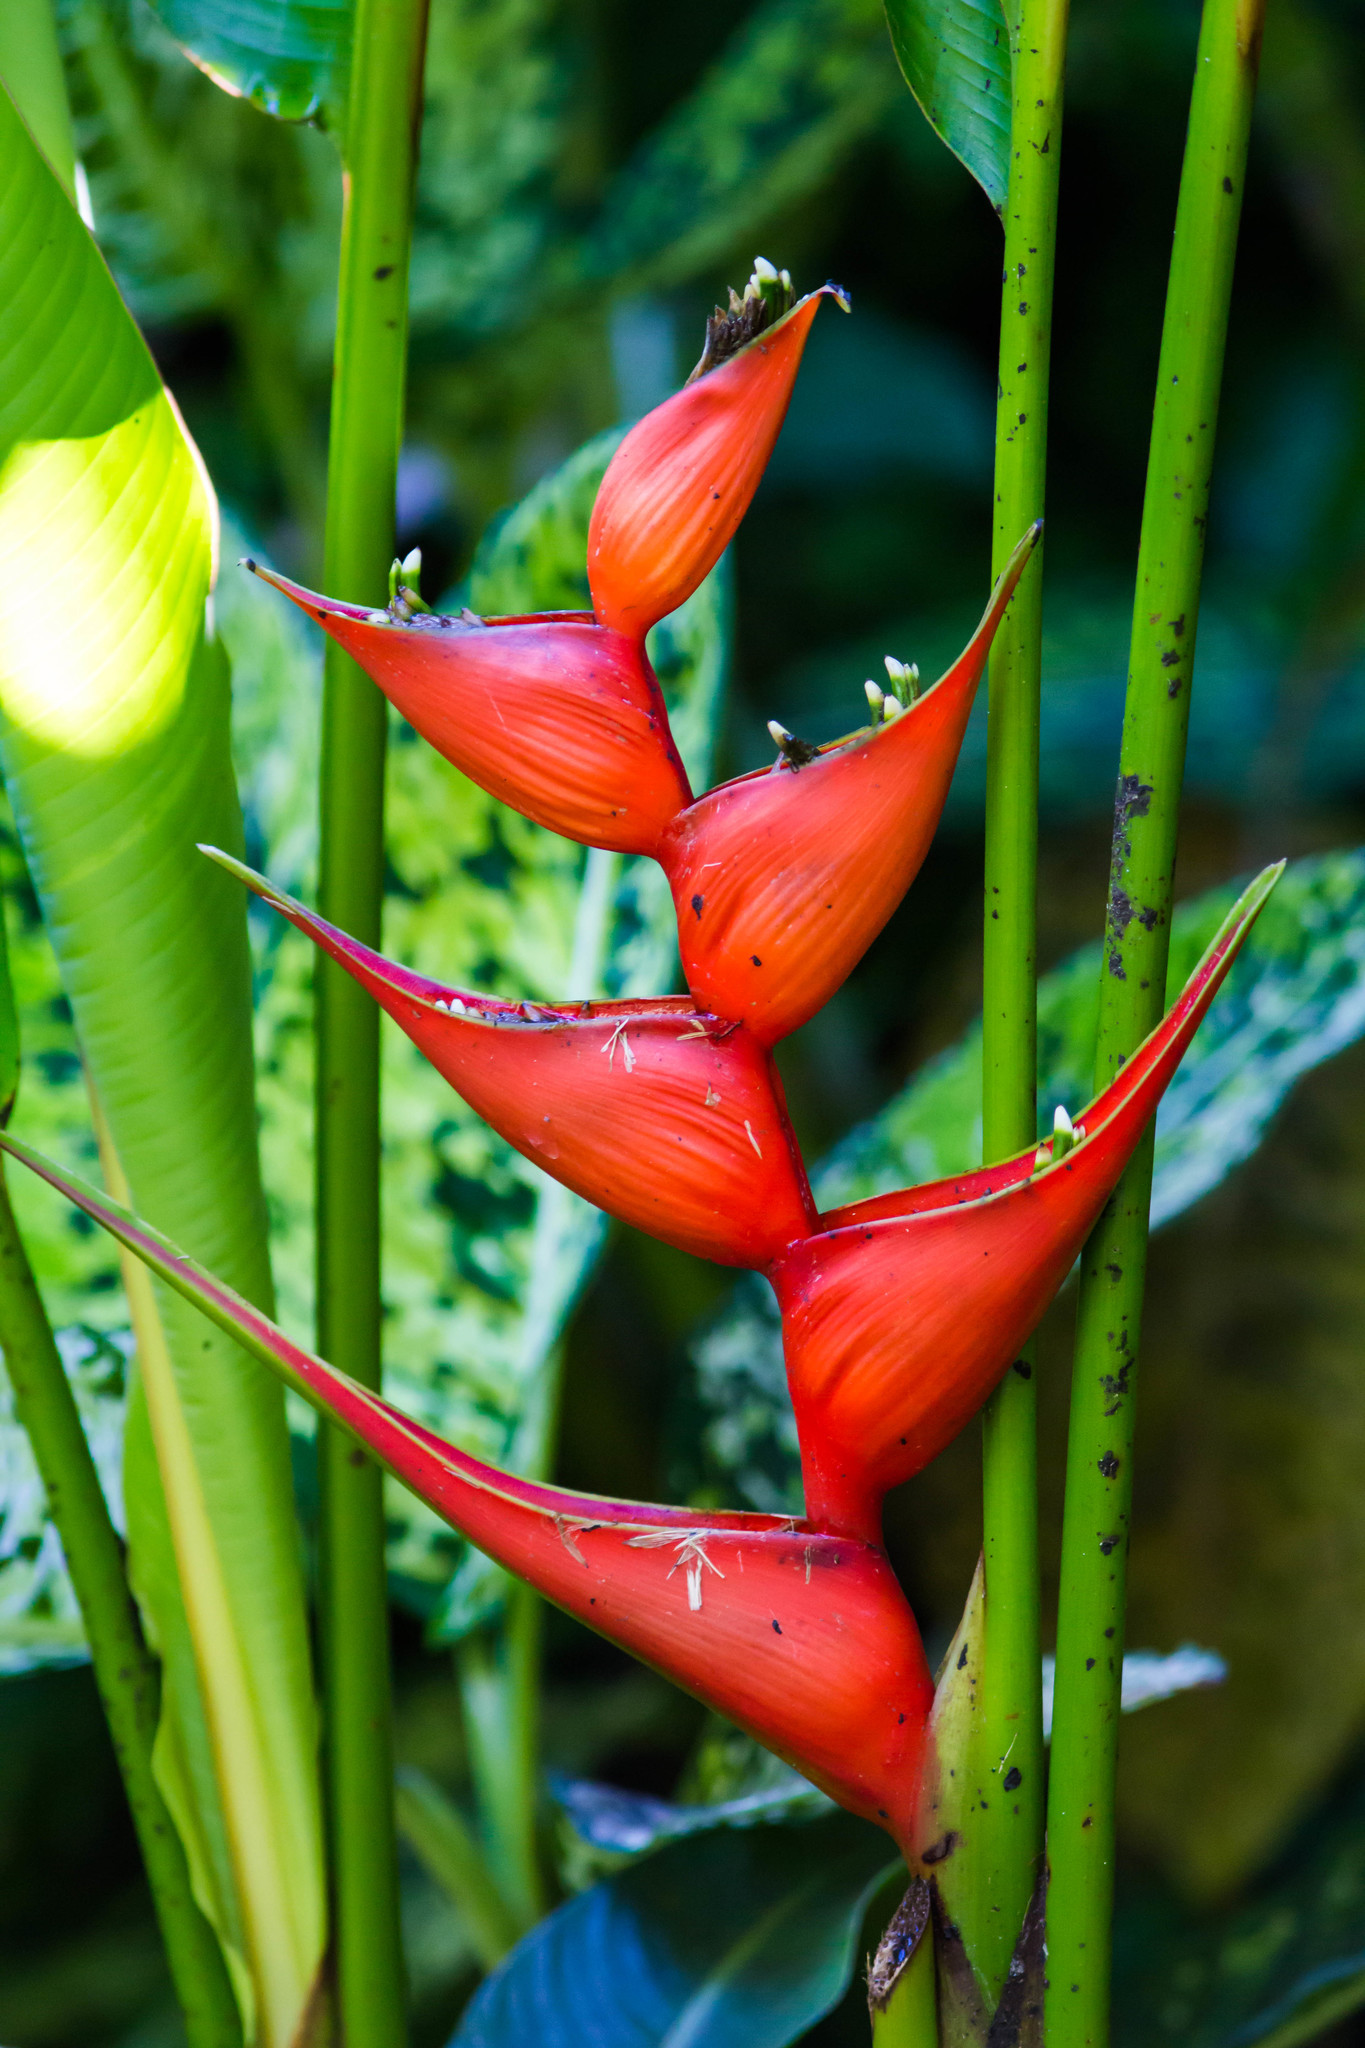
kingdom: Plantae
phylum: Tracheophyta
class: Liliopsida
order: Zingiberales
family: Heliconiaceae
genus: Heliconia
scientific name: Heliconia stricta
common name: Small lobster claw
